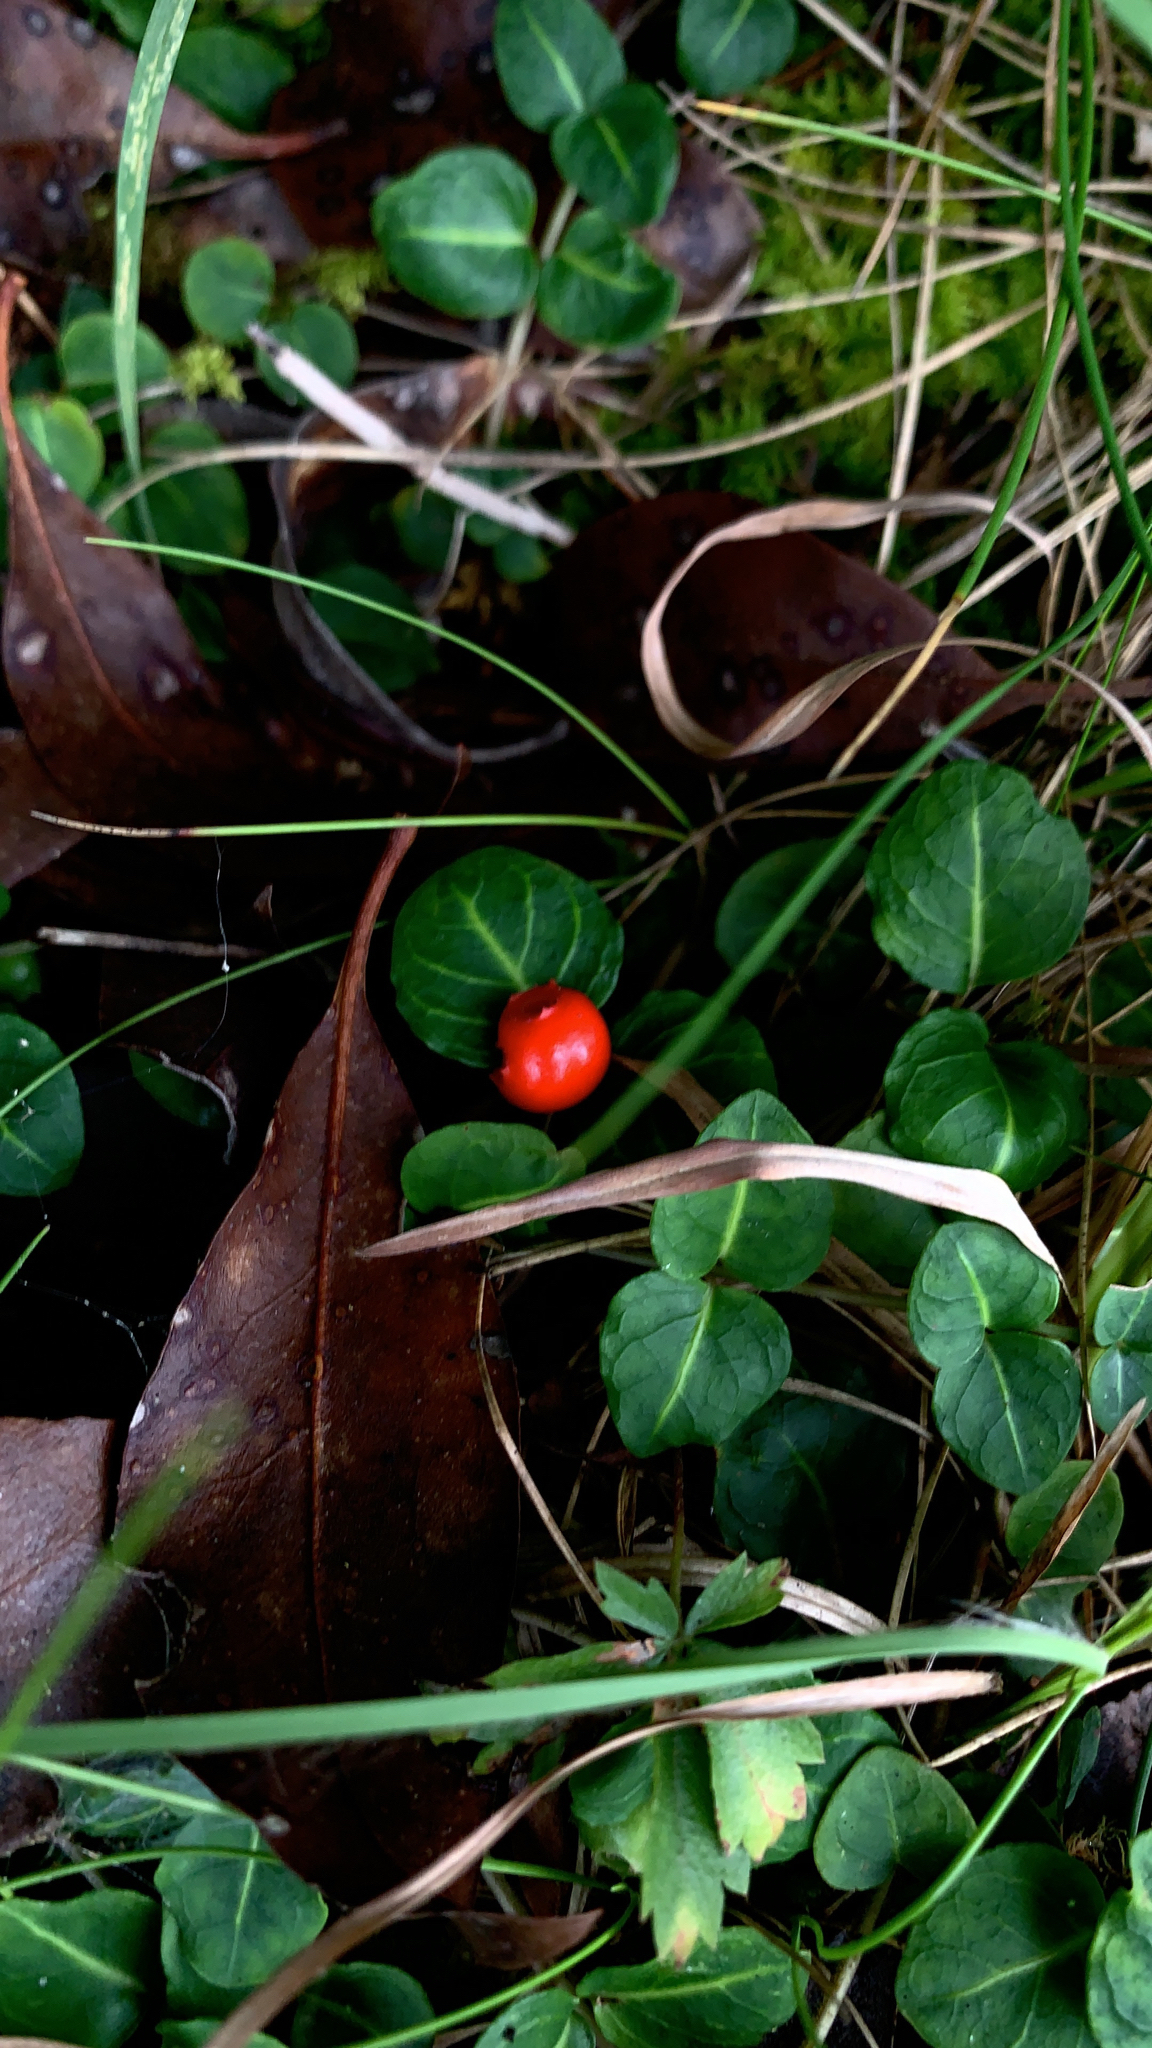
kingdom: Plantae
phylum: Tracheophyta
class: Magnoliopsida
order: Gentianales
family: Rubiaceae
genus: Mitchella
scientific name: Mitchella repens
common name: Partridge-berry
